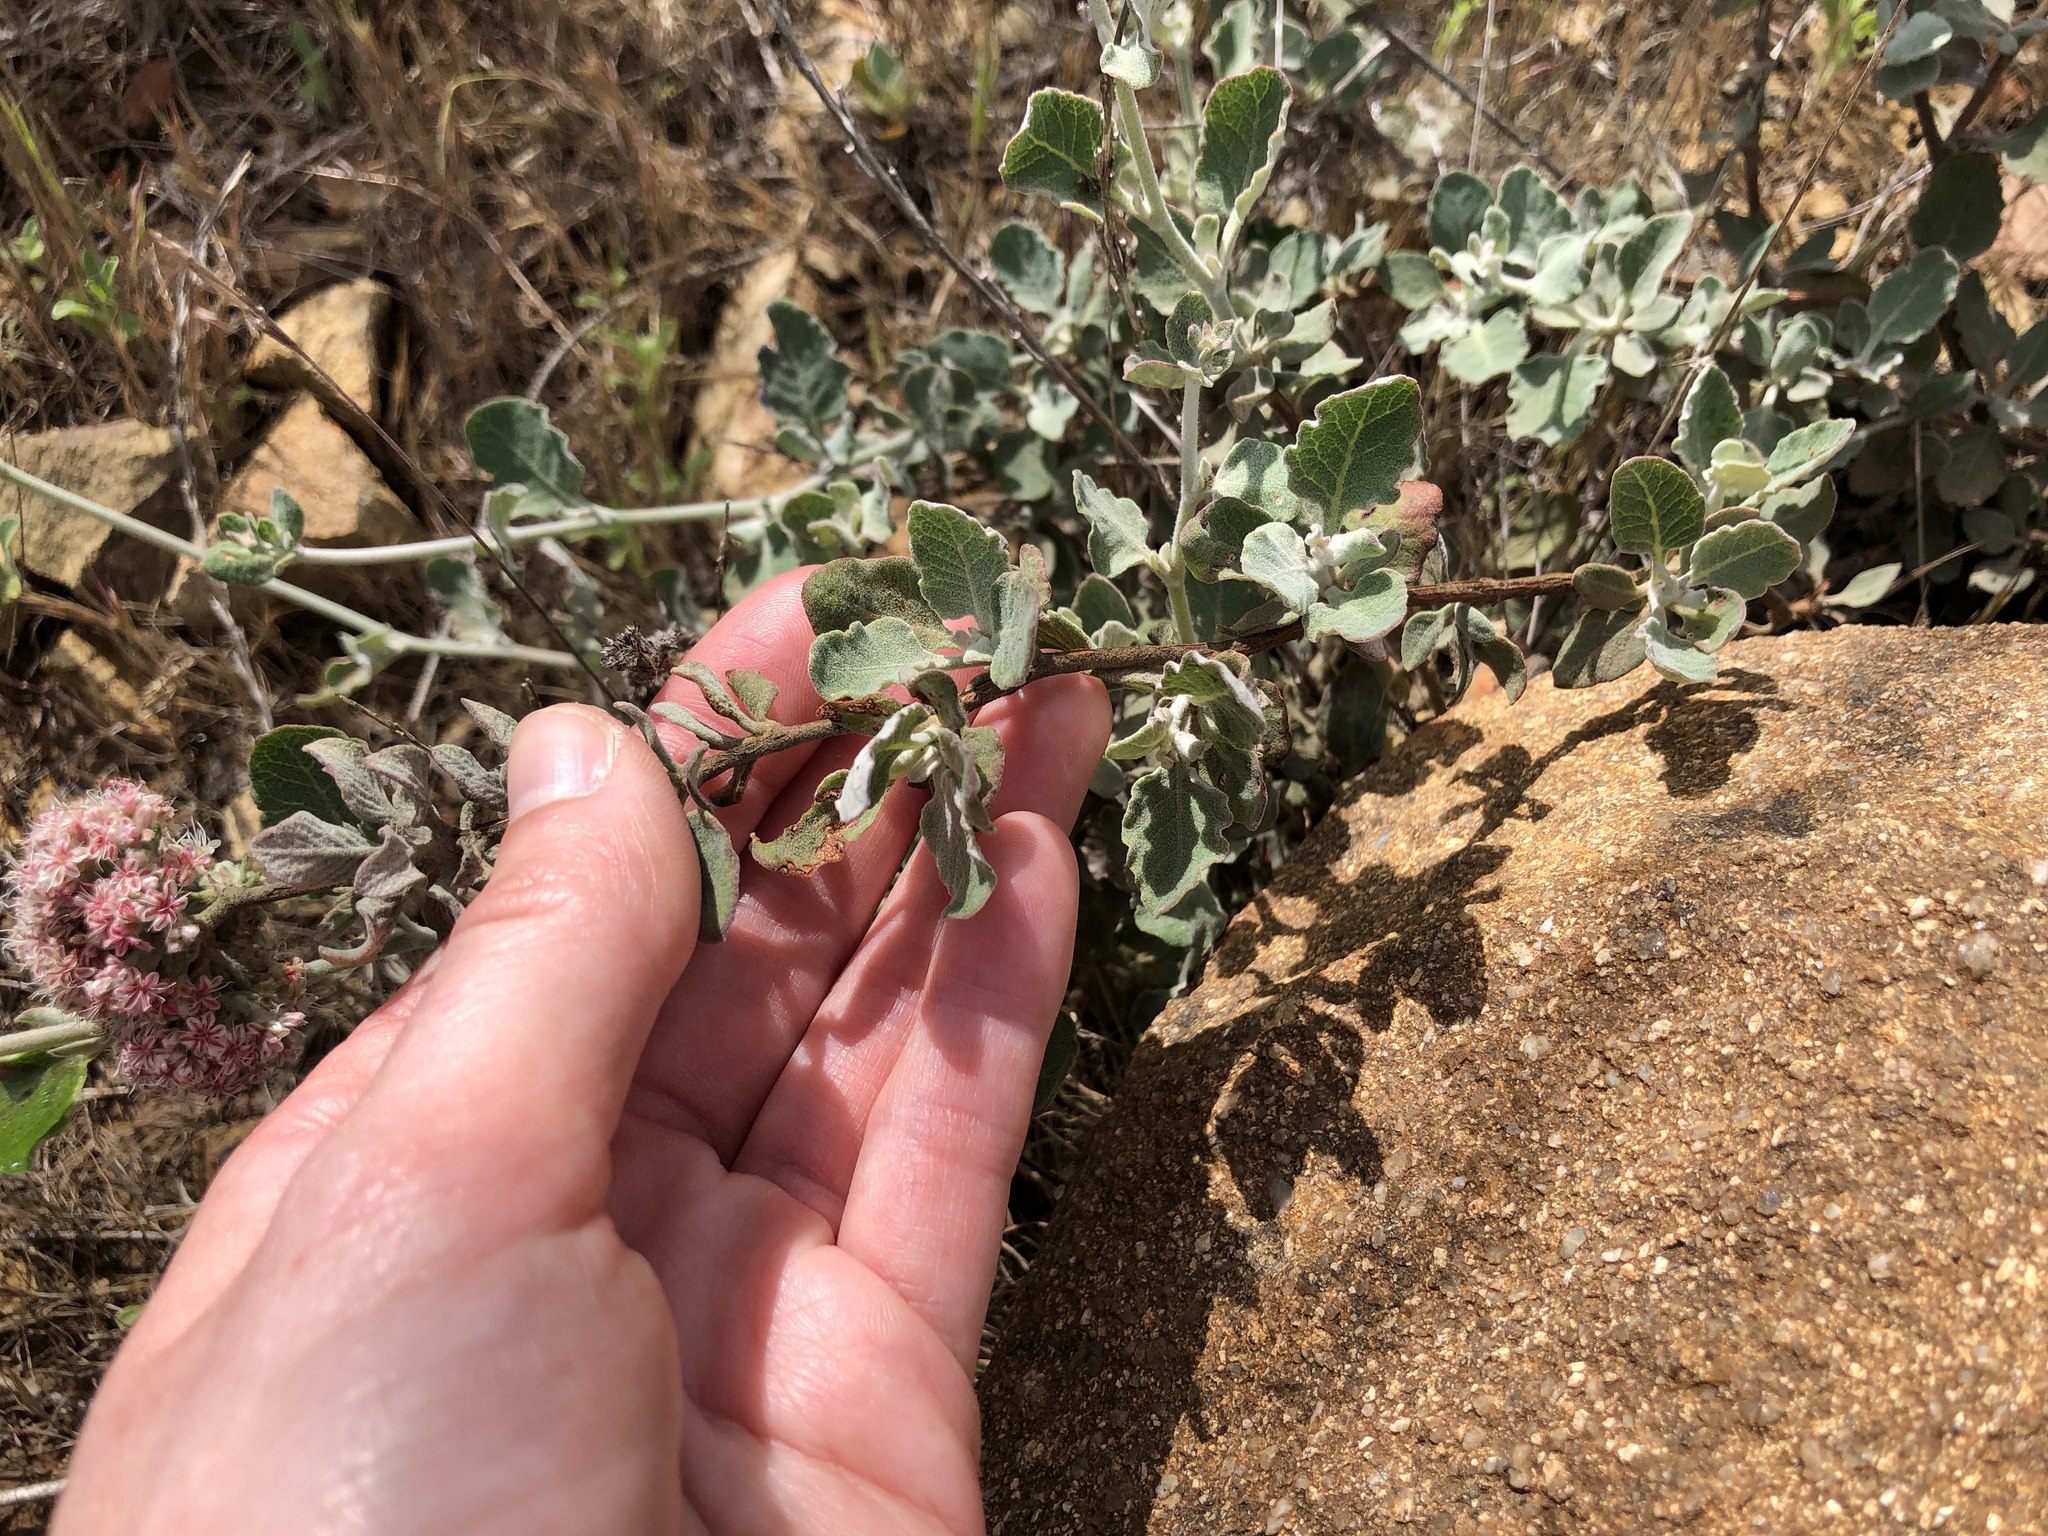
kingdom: Plantae
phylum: Tracheophyta
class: Magnoliopsida
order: Caryophyllales
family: Polygonaceae
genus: Eriogonum
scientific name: Eriogonum cinereum
